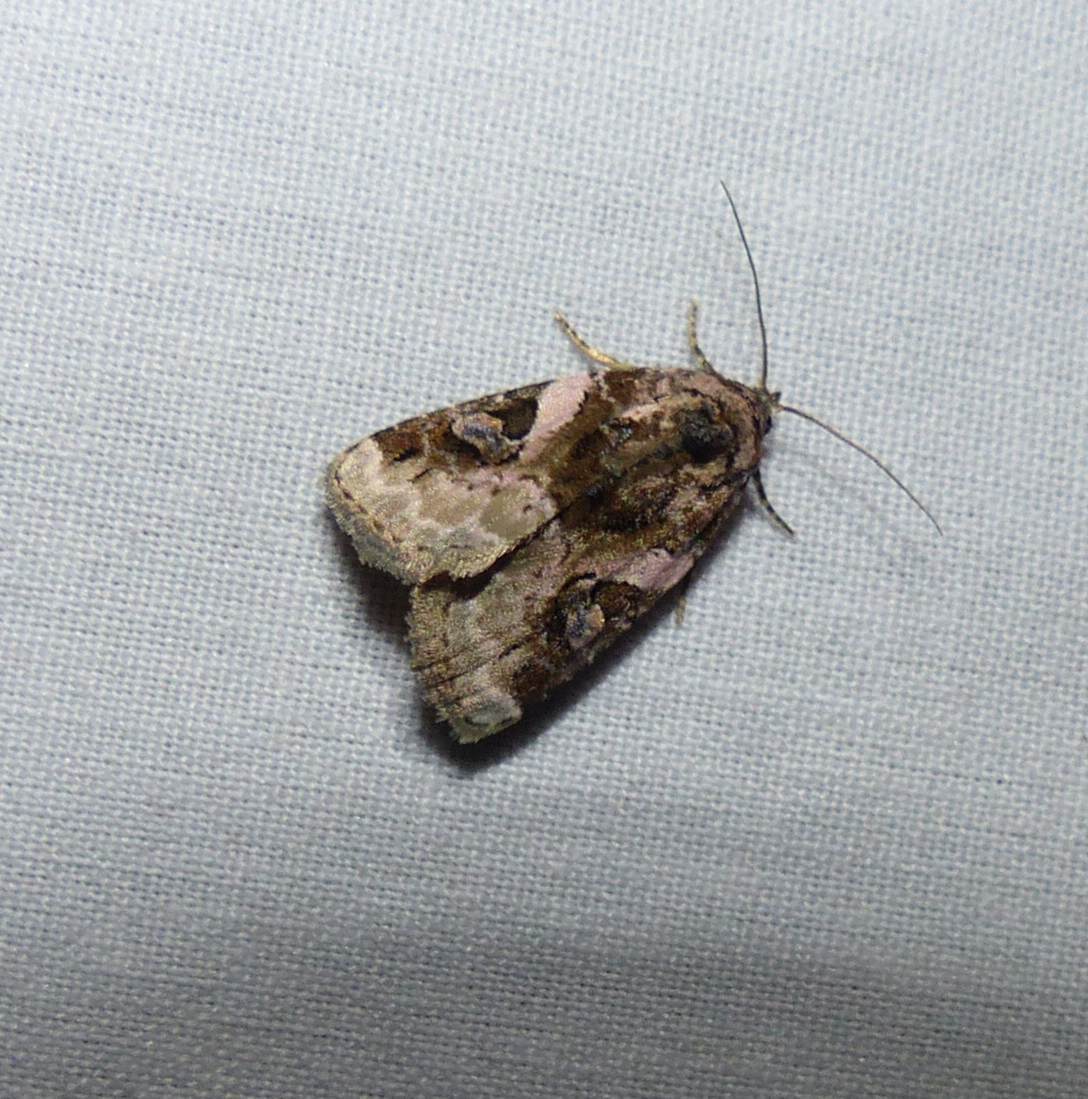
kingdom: Animalia
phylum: Arthropoda
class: Insecta
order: Lepidoptera
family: Noctuidae
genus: Pseudeustrotia
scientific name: Pseudeustrotia carneola
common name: Pink-barred lithacodia moth
